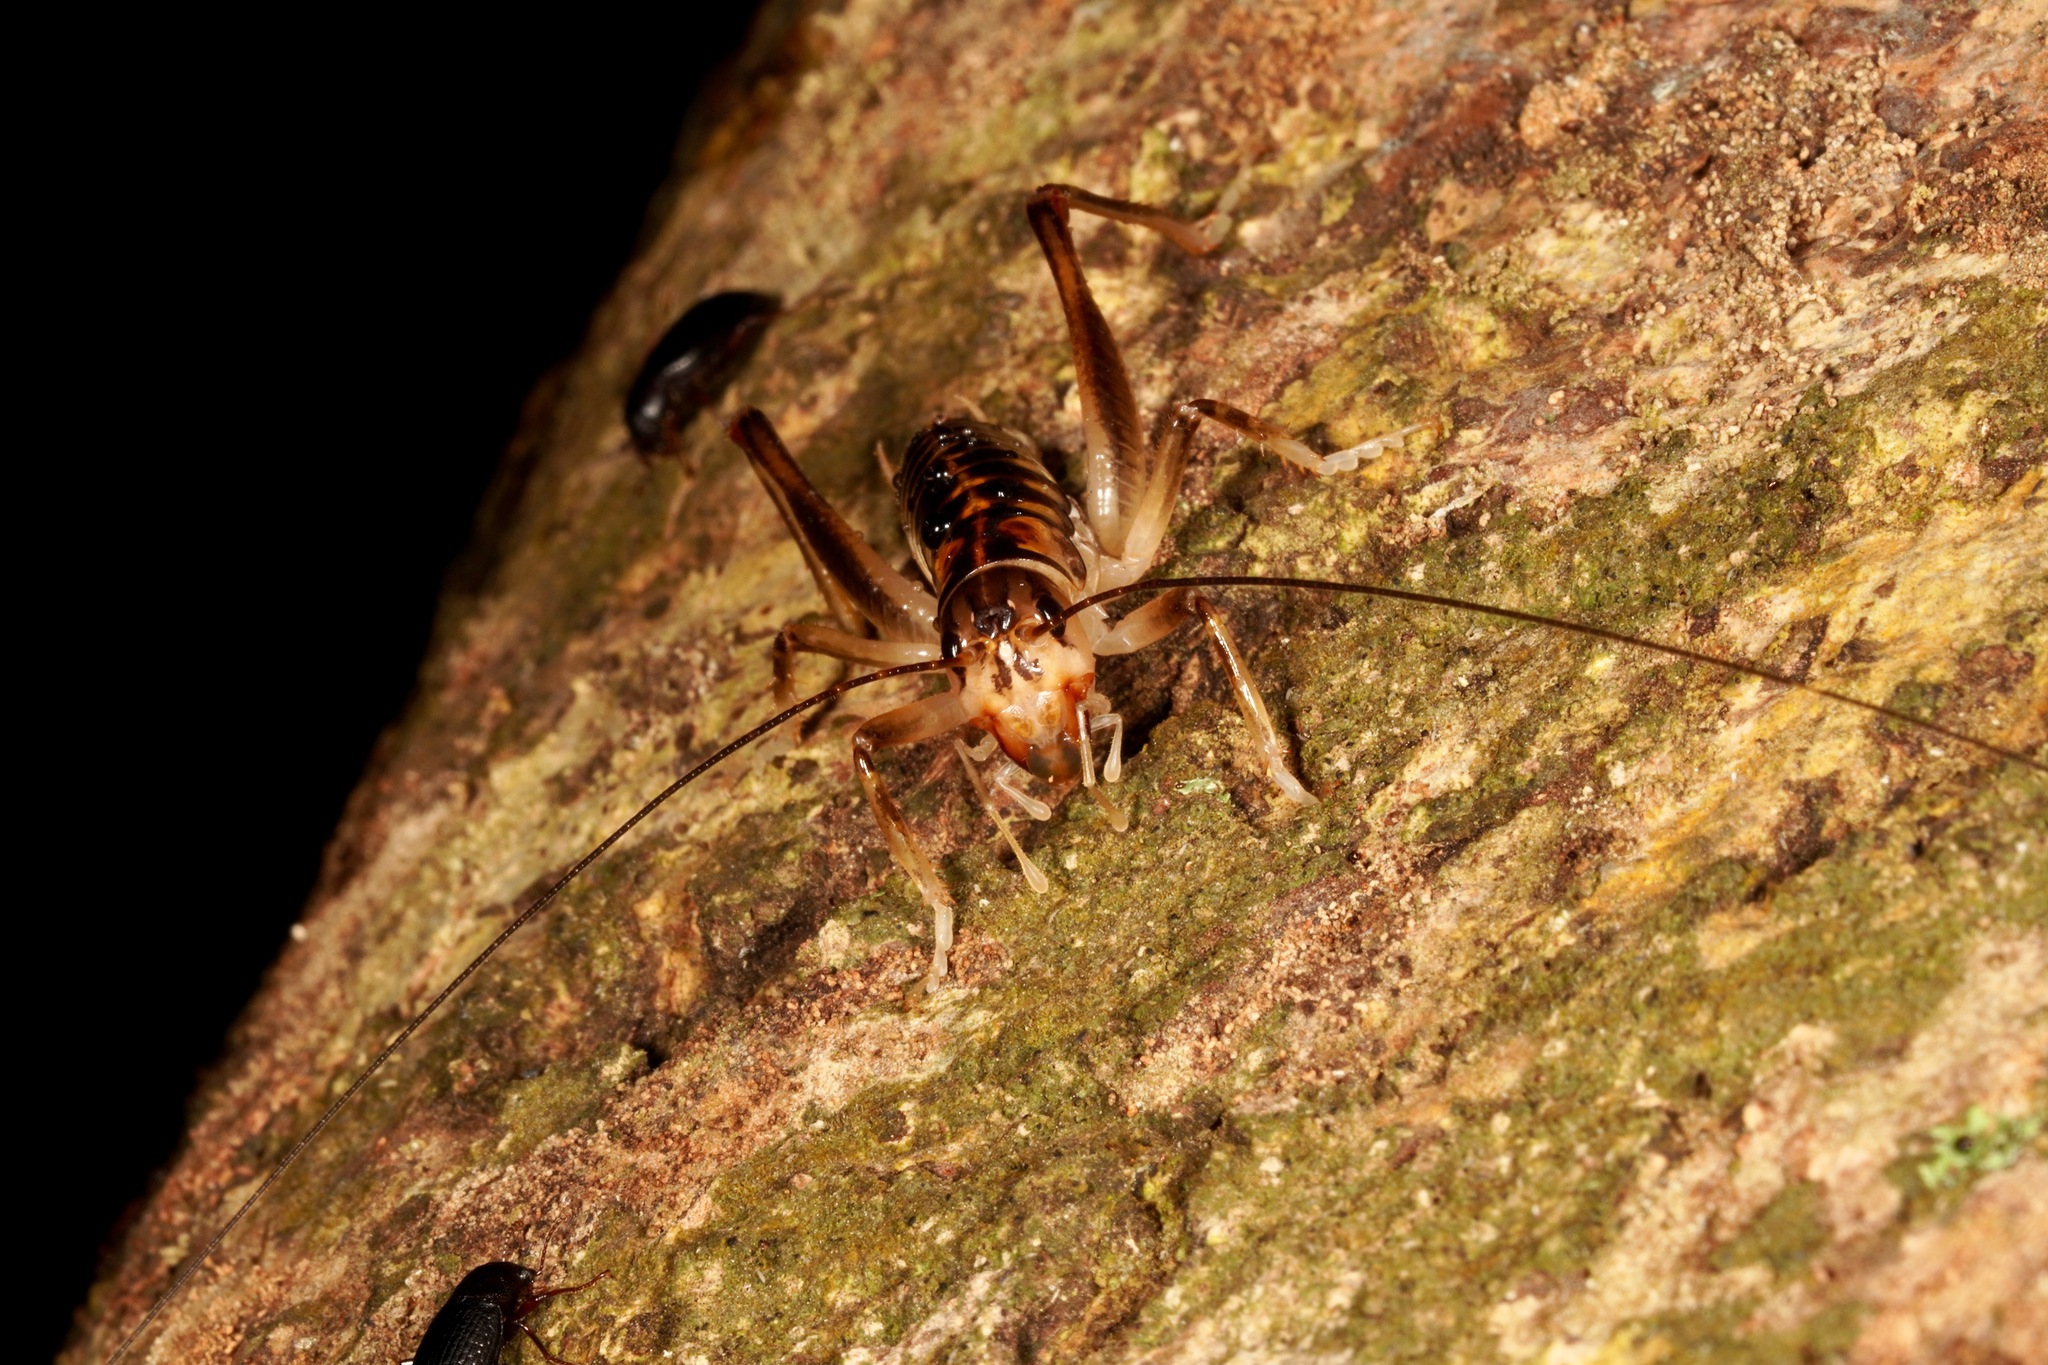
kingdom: Animalia
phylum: Arthropoda
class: Insecta
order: Orthoptera
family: Anostostomatidae
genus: Hemiandrus
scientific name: Hemiandrus pallitarsis
